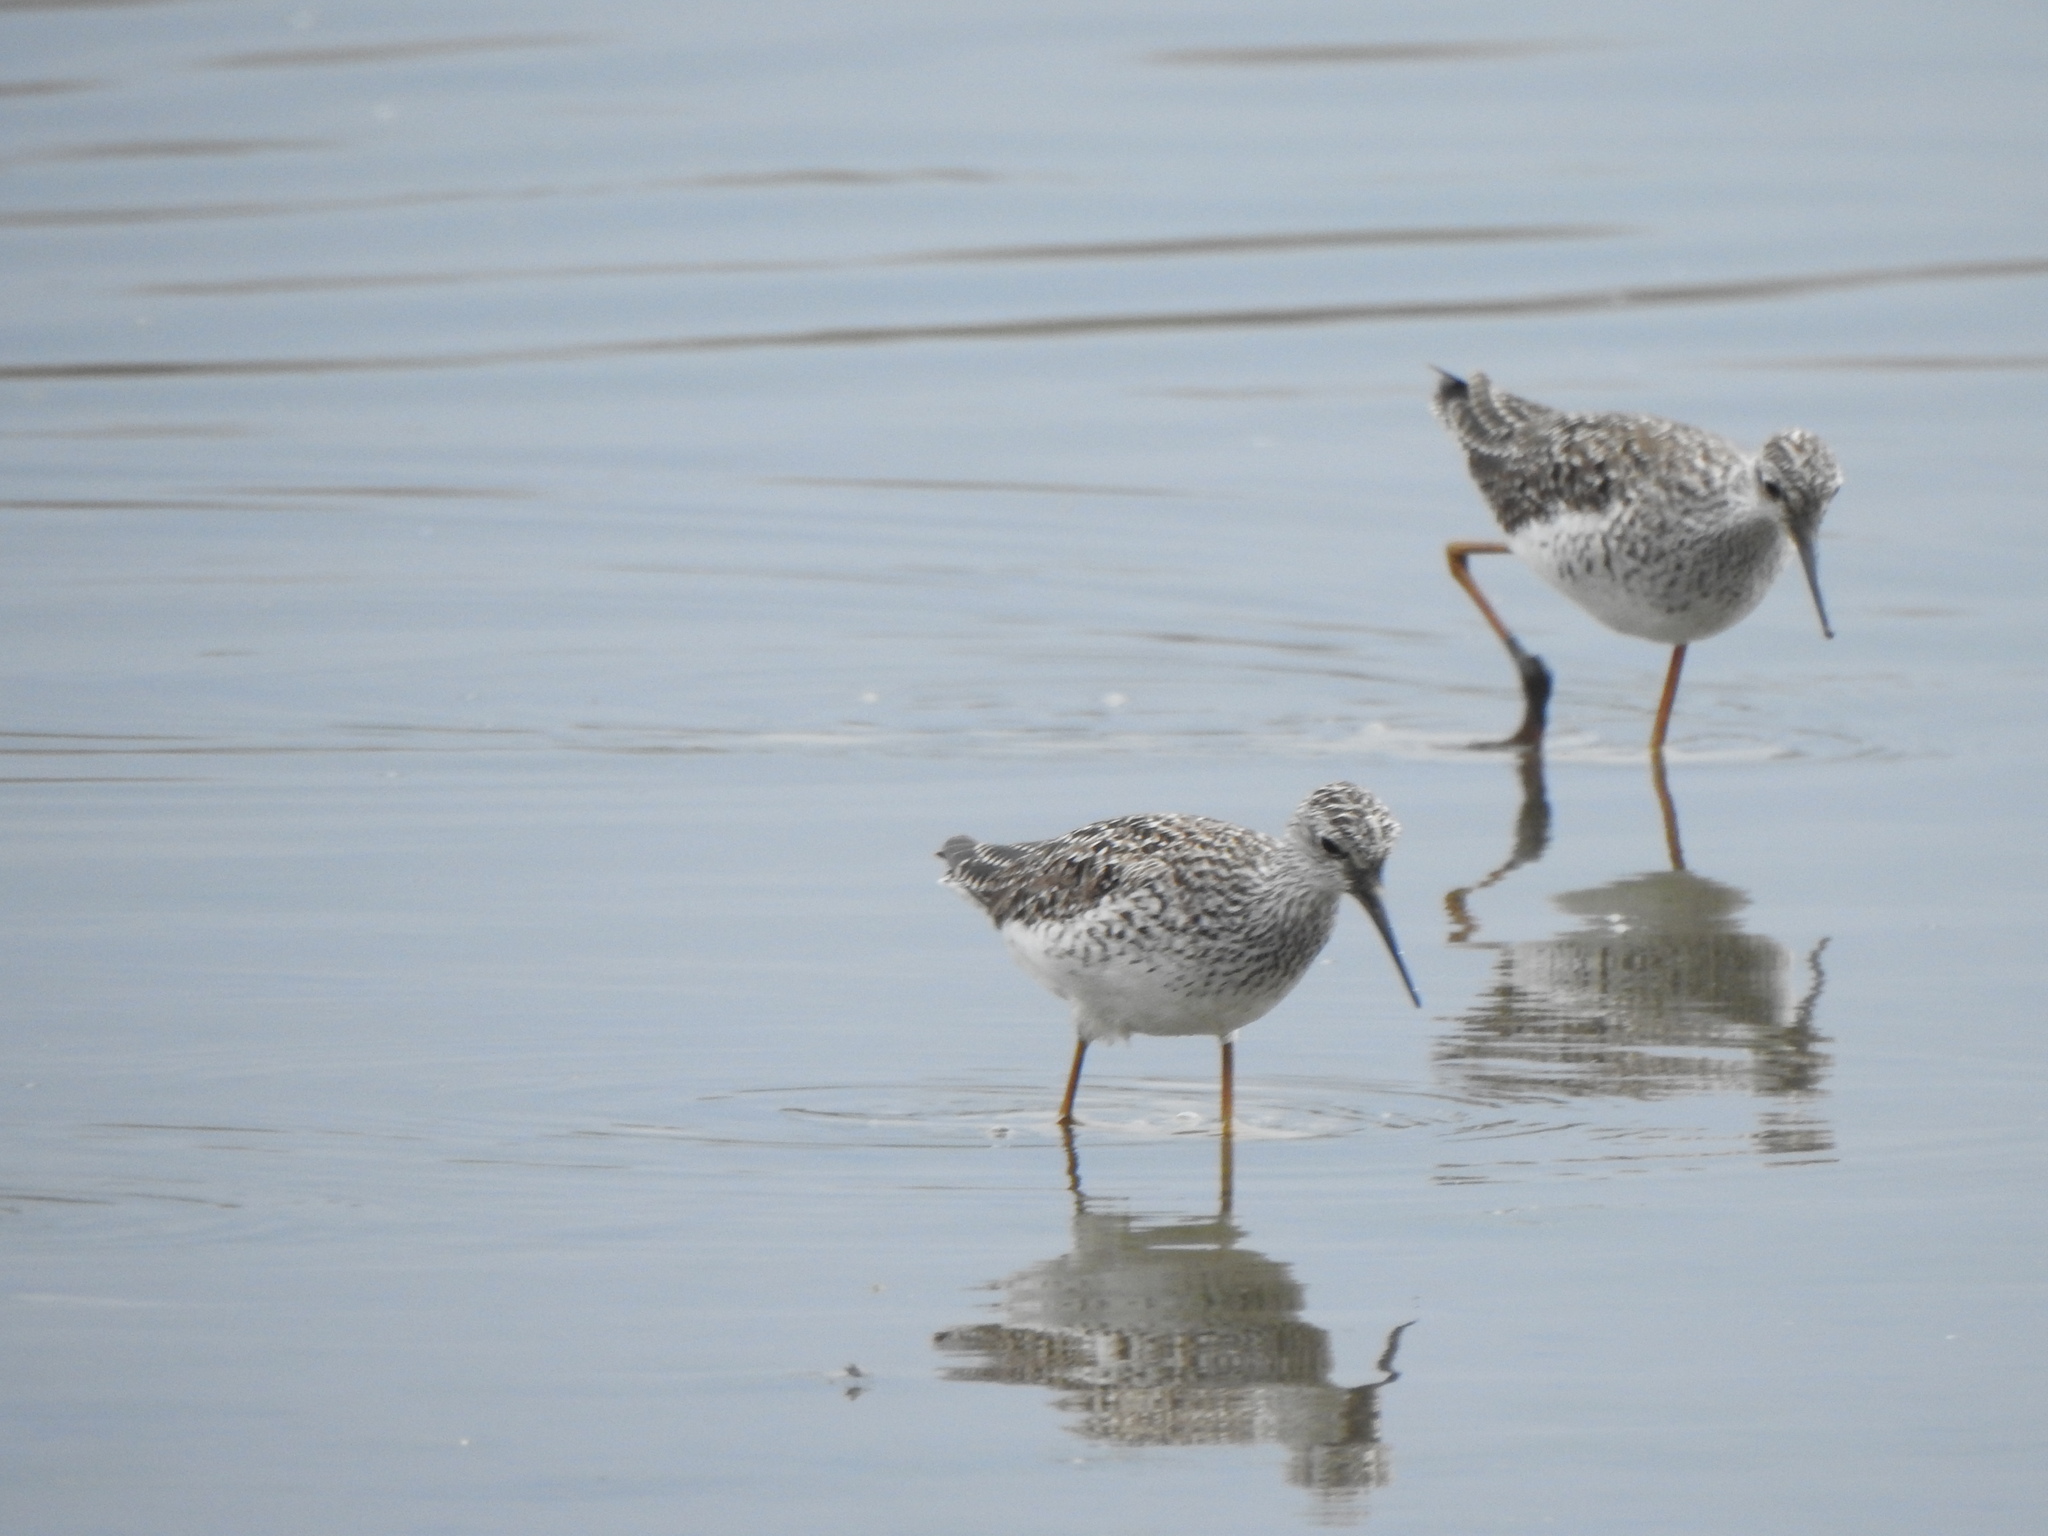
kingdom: Animalia
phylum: Chordata
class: Aves
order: Charadriiformes
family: Scolopacidae
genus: Tringa
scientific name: Tringa flavipes
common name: Lesser yellowlegs
